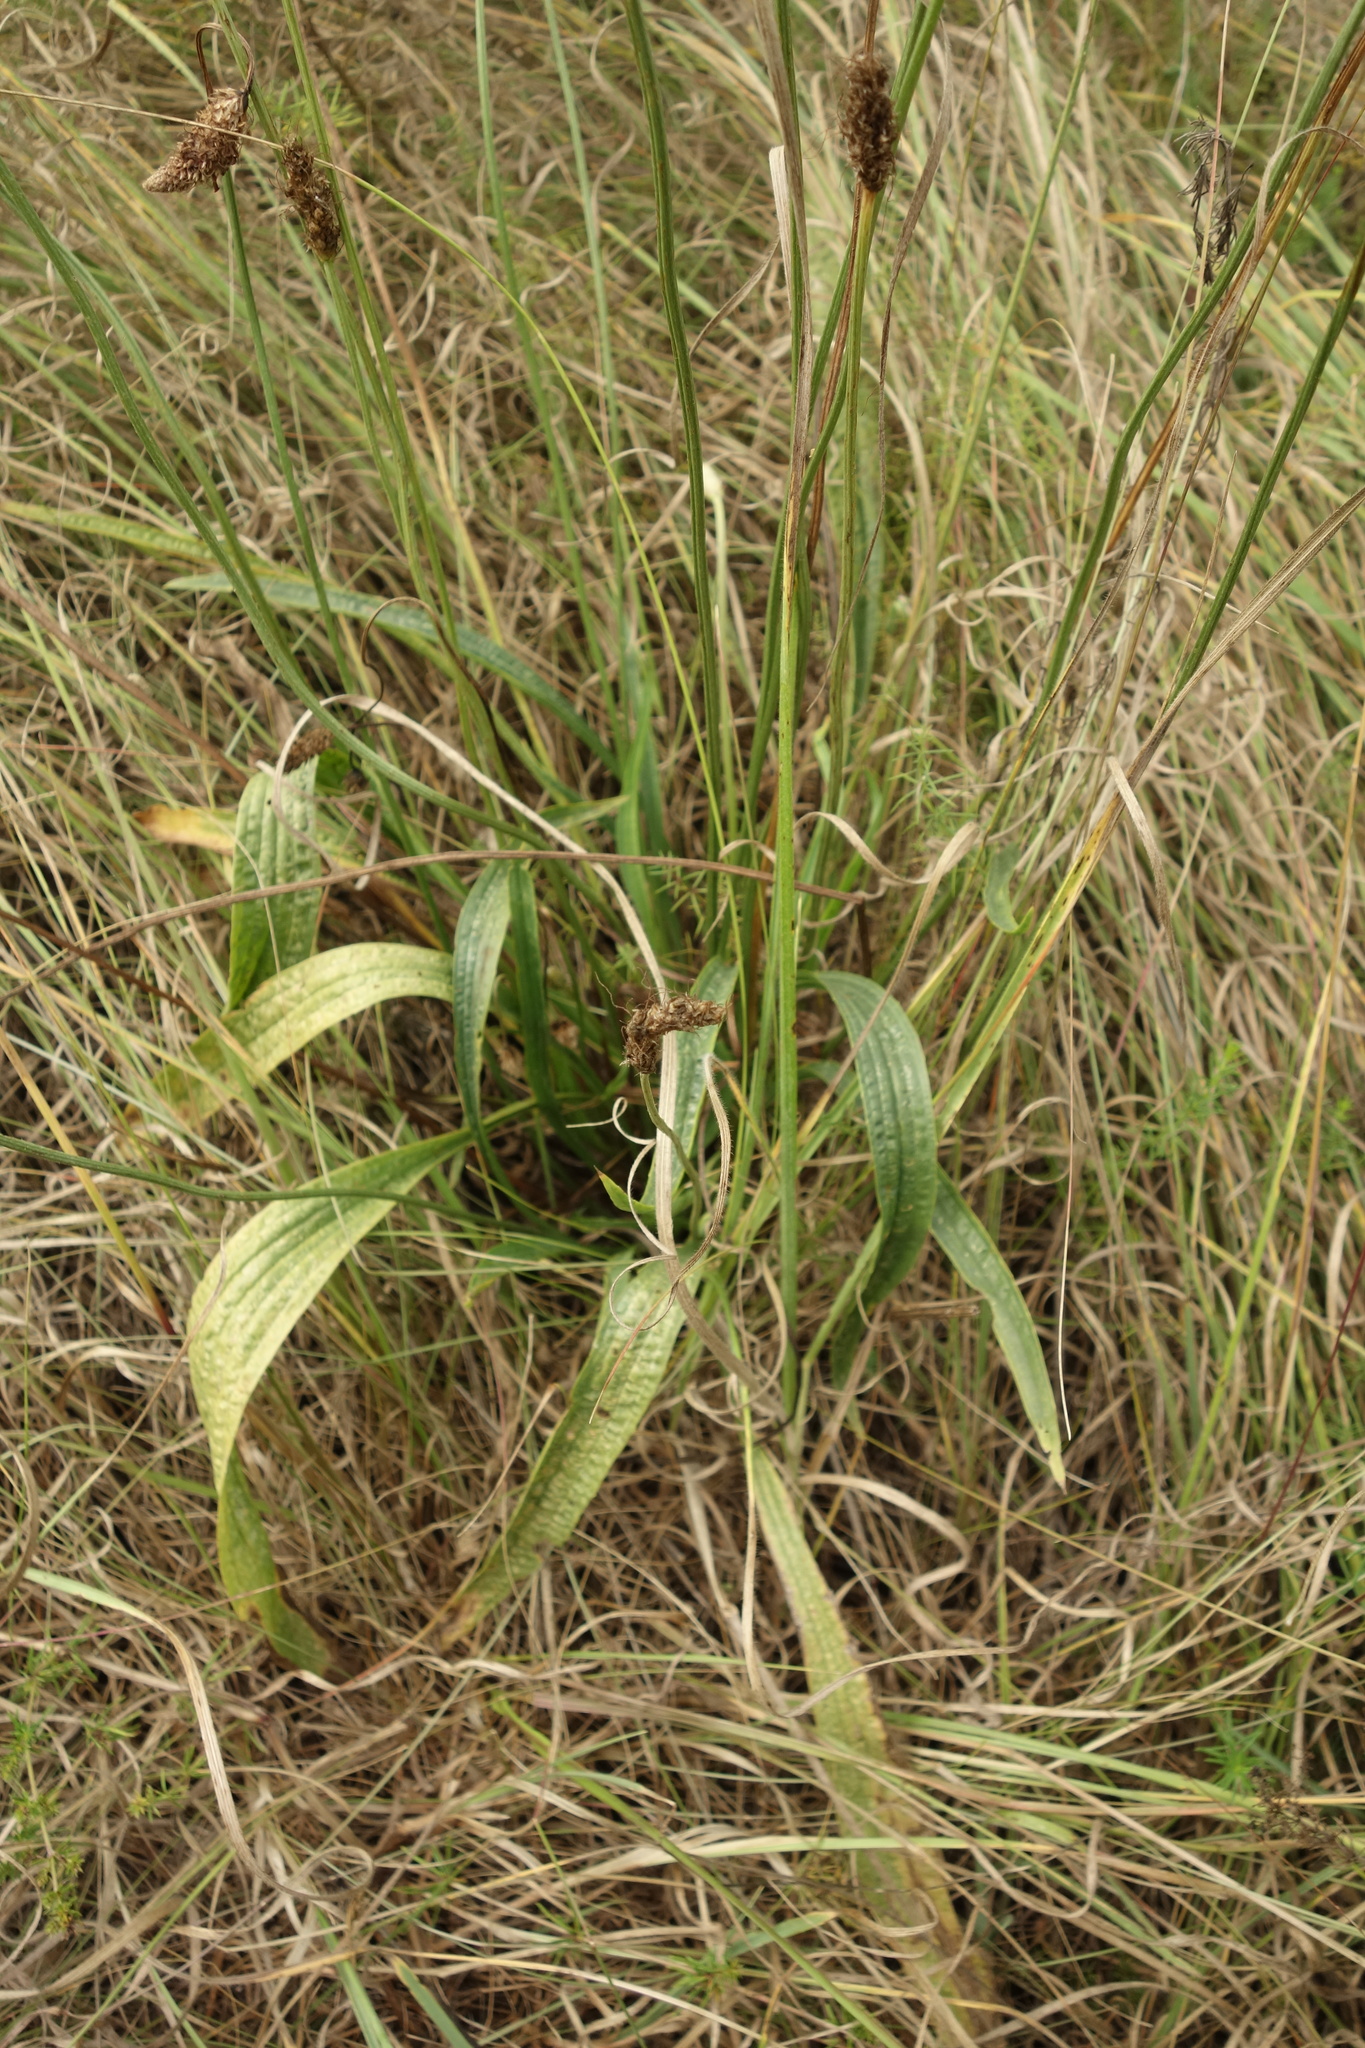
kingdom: Plantae
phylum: Tracheophyta
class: Magnoliopsida
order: Lamiales
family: Plantaginaceae
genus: Plantago
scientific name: Plantago lanceolata
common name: Ribwort plantain
